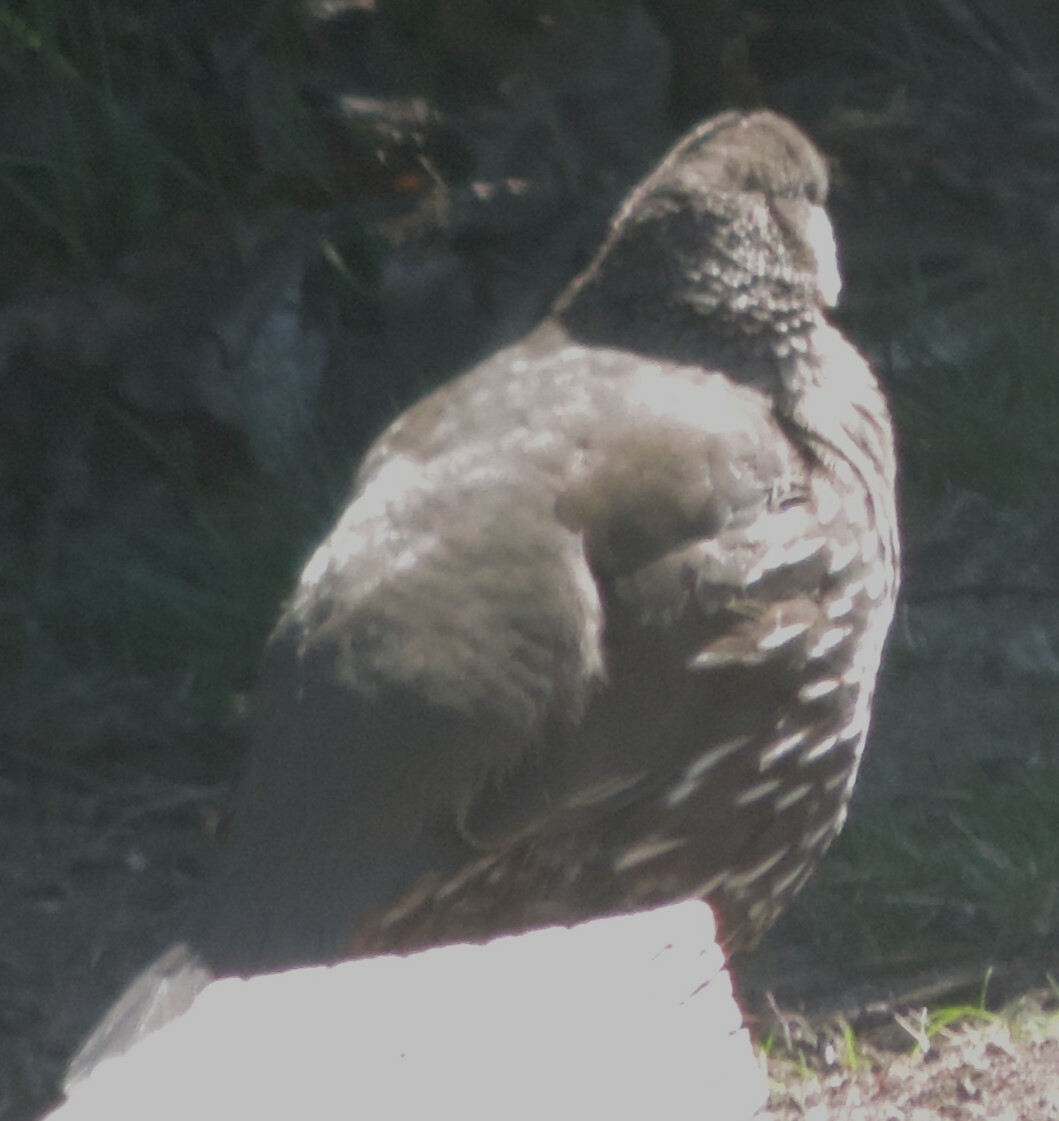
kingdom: Animalia
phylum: Chordata
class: Aves
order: Galliformes
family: Odontophoridae
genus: Callipepla
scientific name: Callipepla californica
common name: California quail
